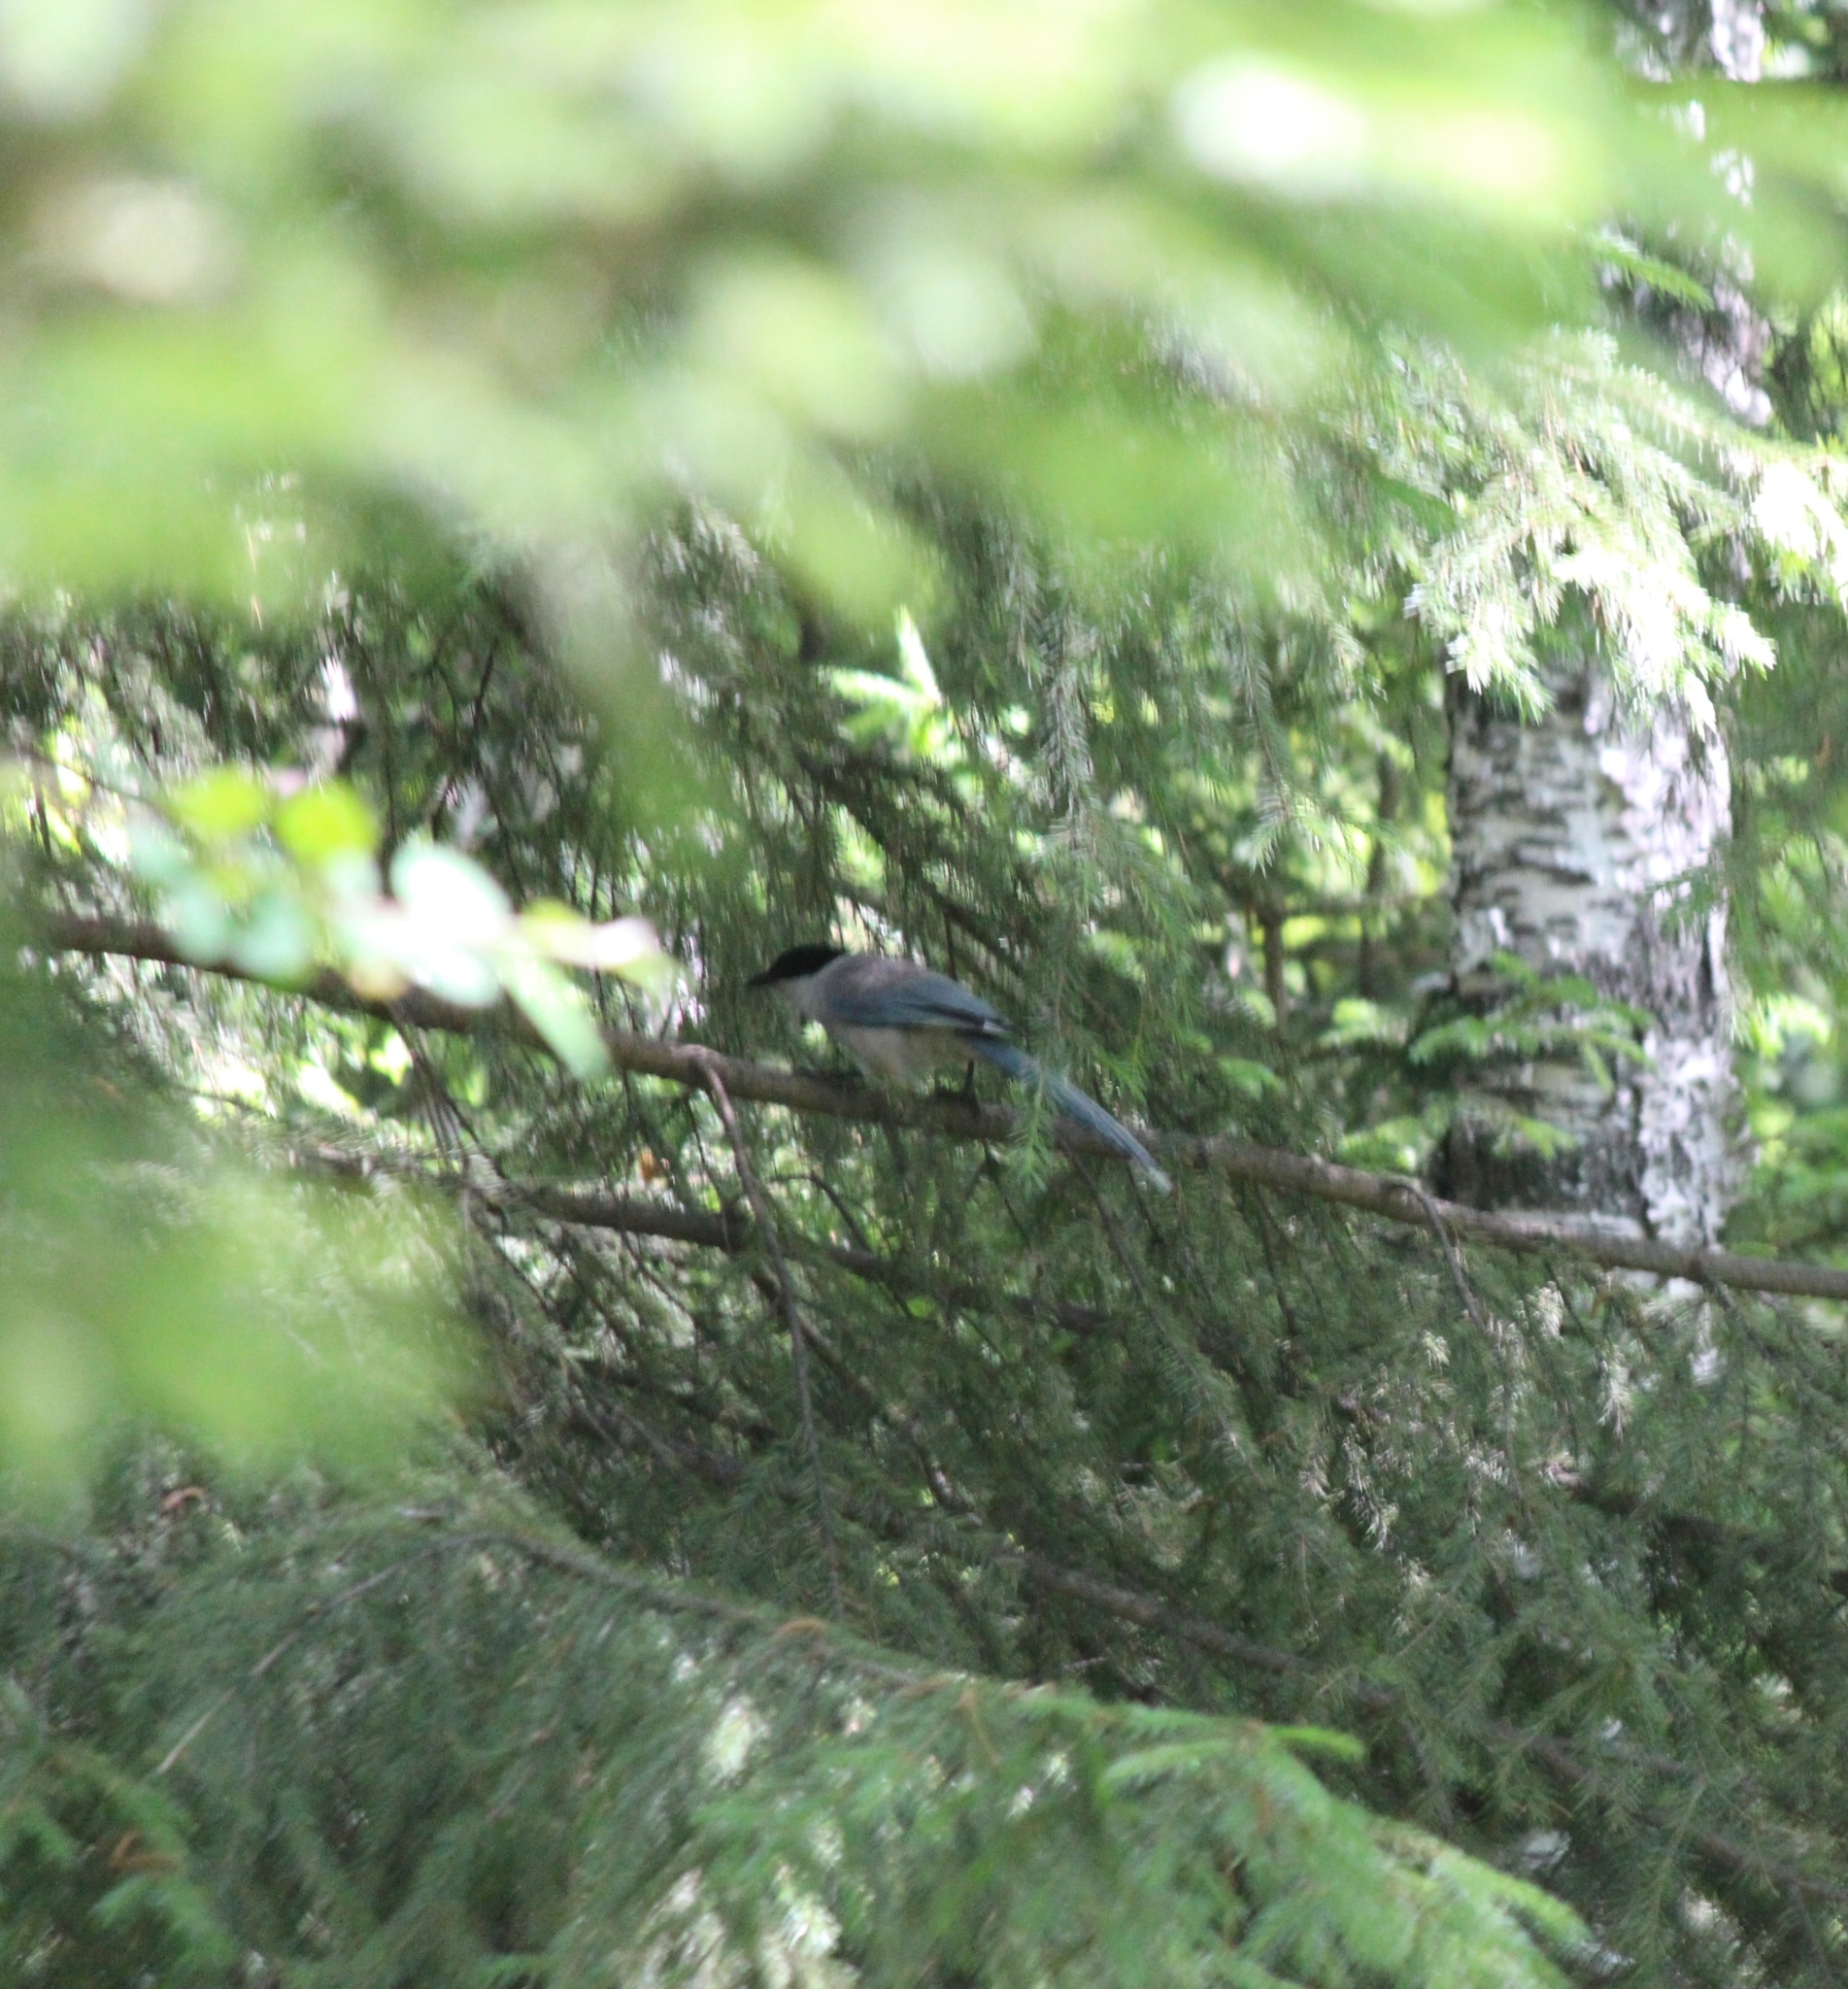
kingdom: Animalia
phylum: Chordata
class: Aves
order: Passeriformes
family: Corvidae
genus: Cyanopica
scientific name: Cyanopica cyanus
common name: Azure-winged magpie
